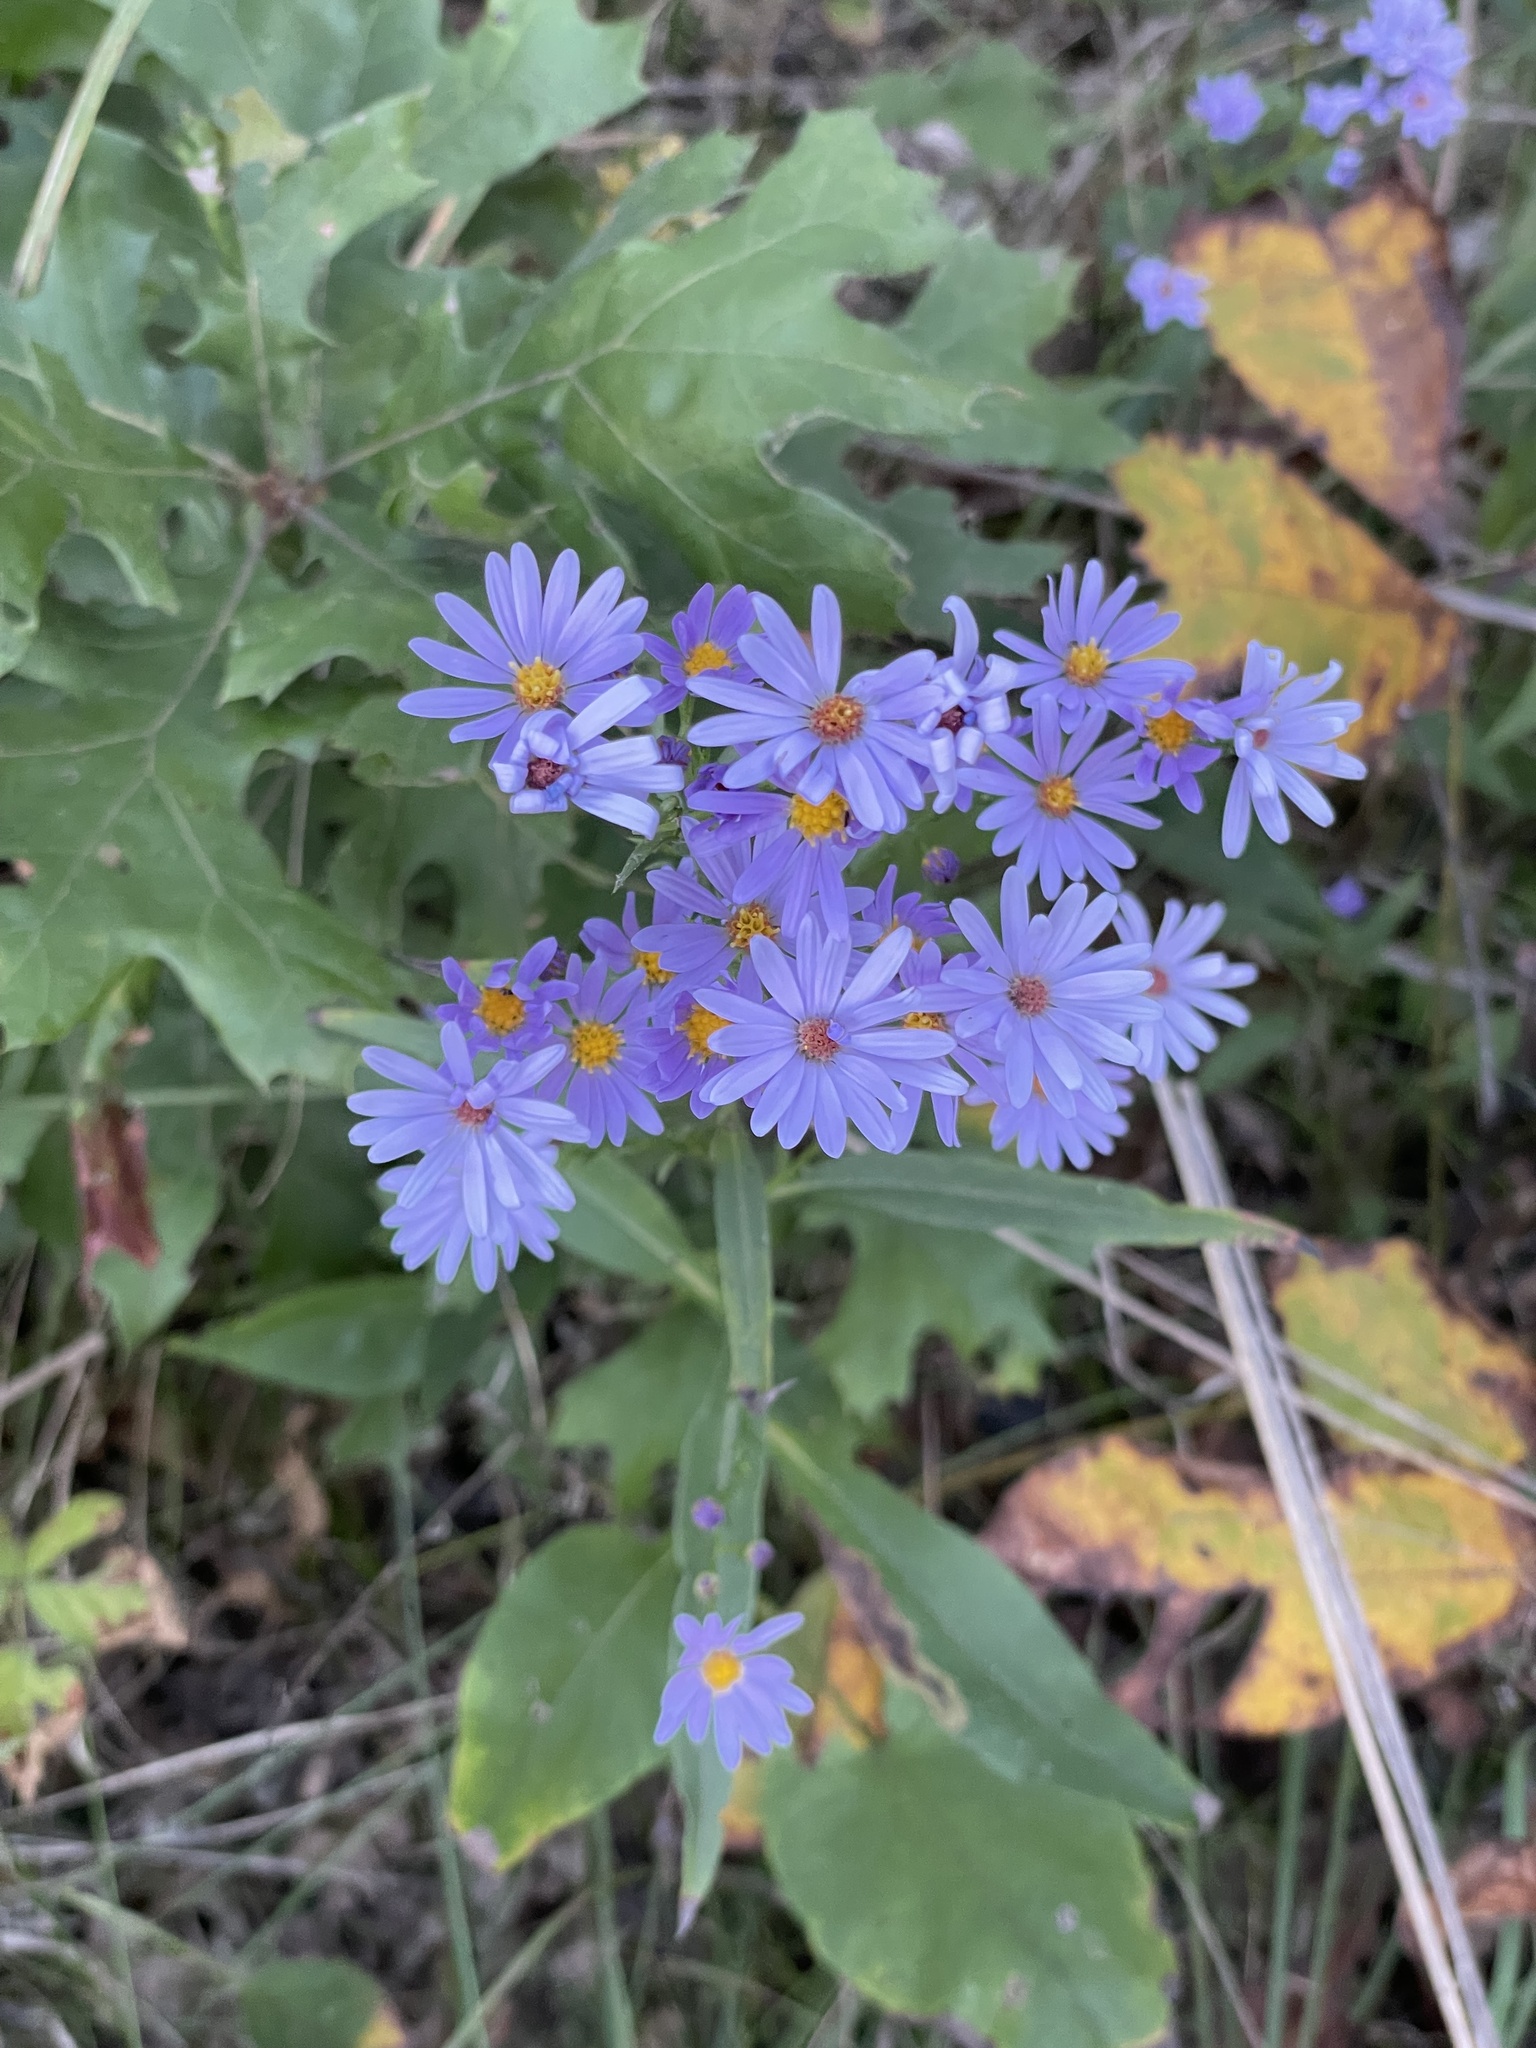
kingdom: Plantae
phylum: Tracheophyta
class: Magnoliopsida
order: Asterales
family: Asteraceae
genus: Symphyotrichum
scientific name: Symphyotrichum oolentangiense
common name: Azure aster
